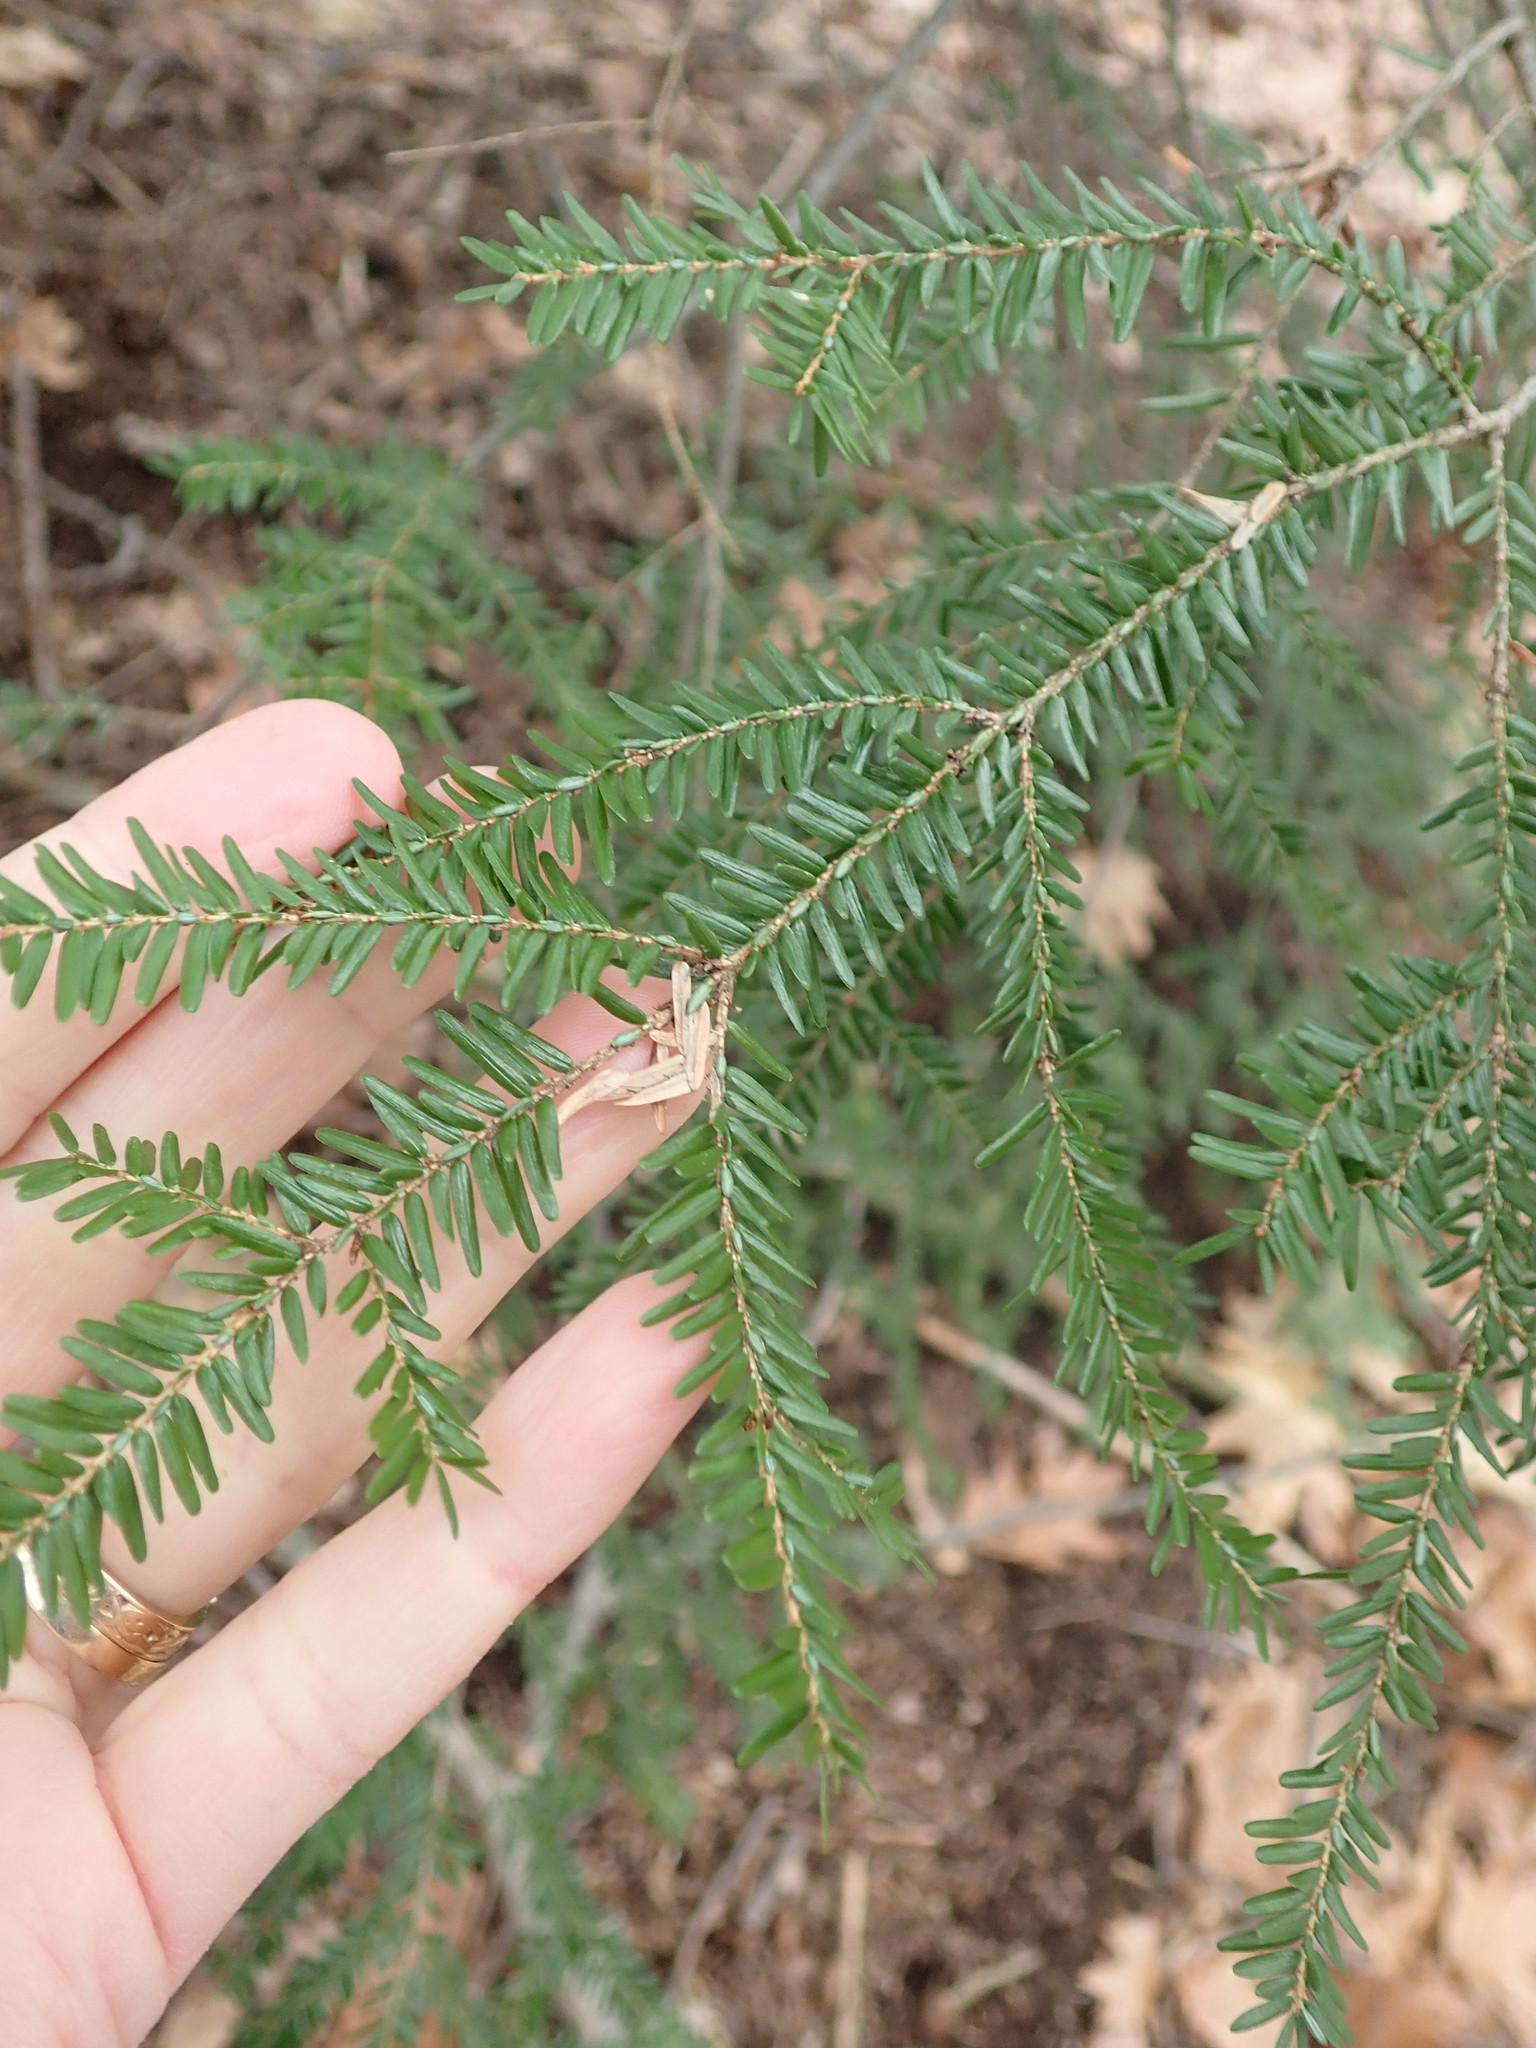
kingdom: Plantae
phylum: Tracheophyta
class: Pinopsida
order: Pinales
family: Pinaceae
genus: Tsuga
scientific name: Tsuga canadensis
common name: Eastern hemlock
